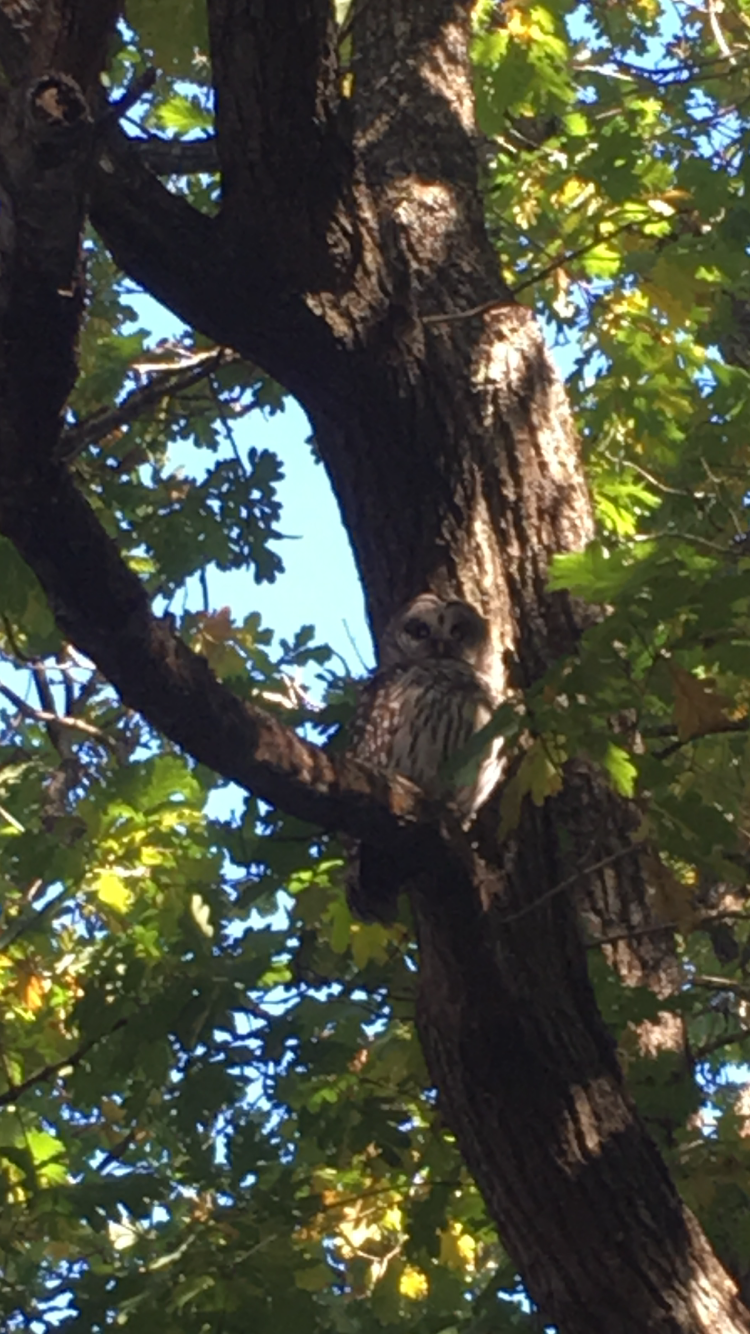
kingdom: Animalia
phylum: Chordata
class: Aves
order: Strigiformes
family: Strigidae
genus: Strix
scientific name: Strix varia
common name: Barred owl
